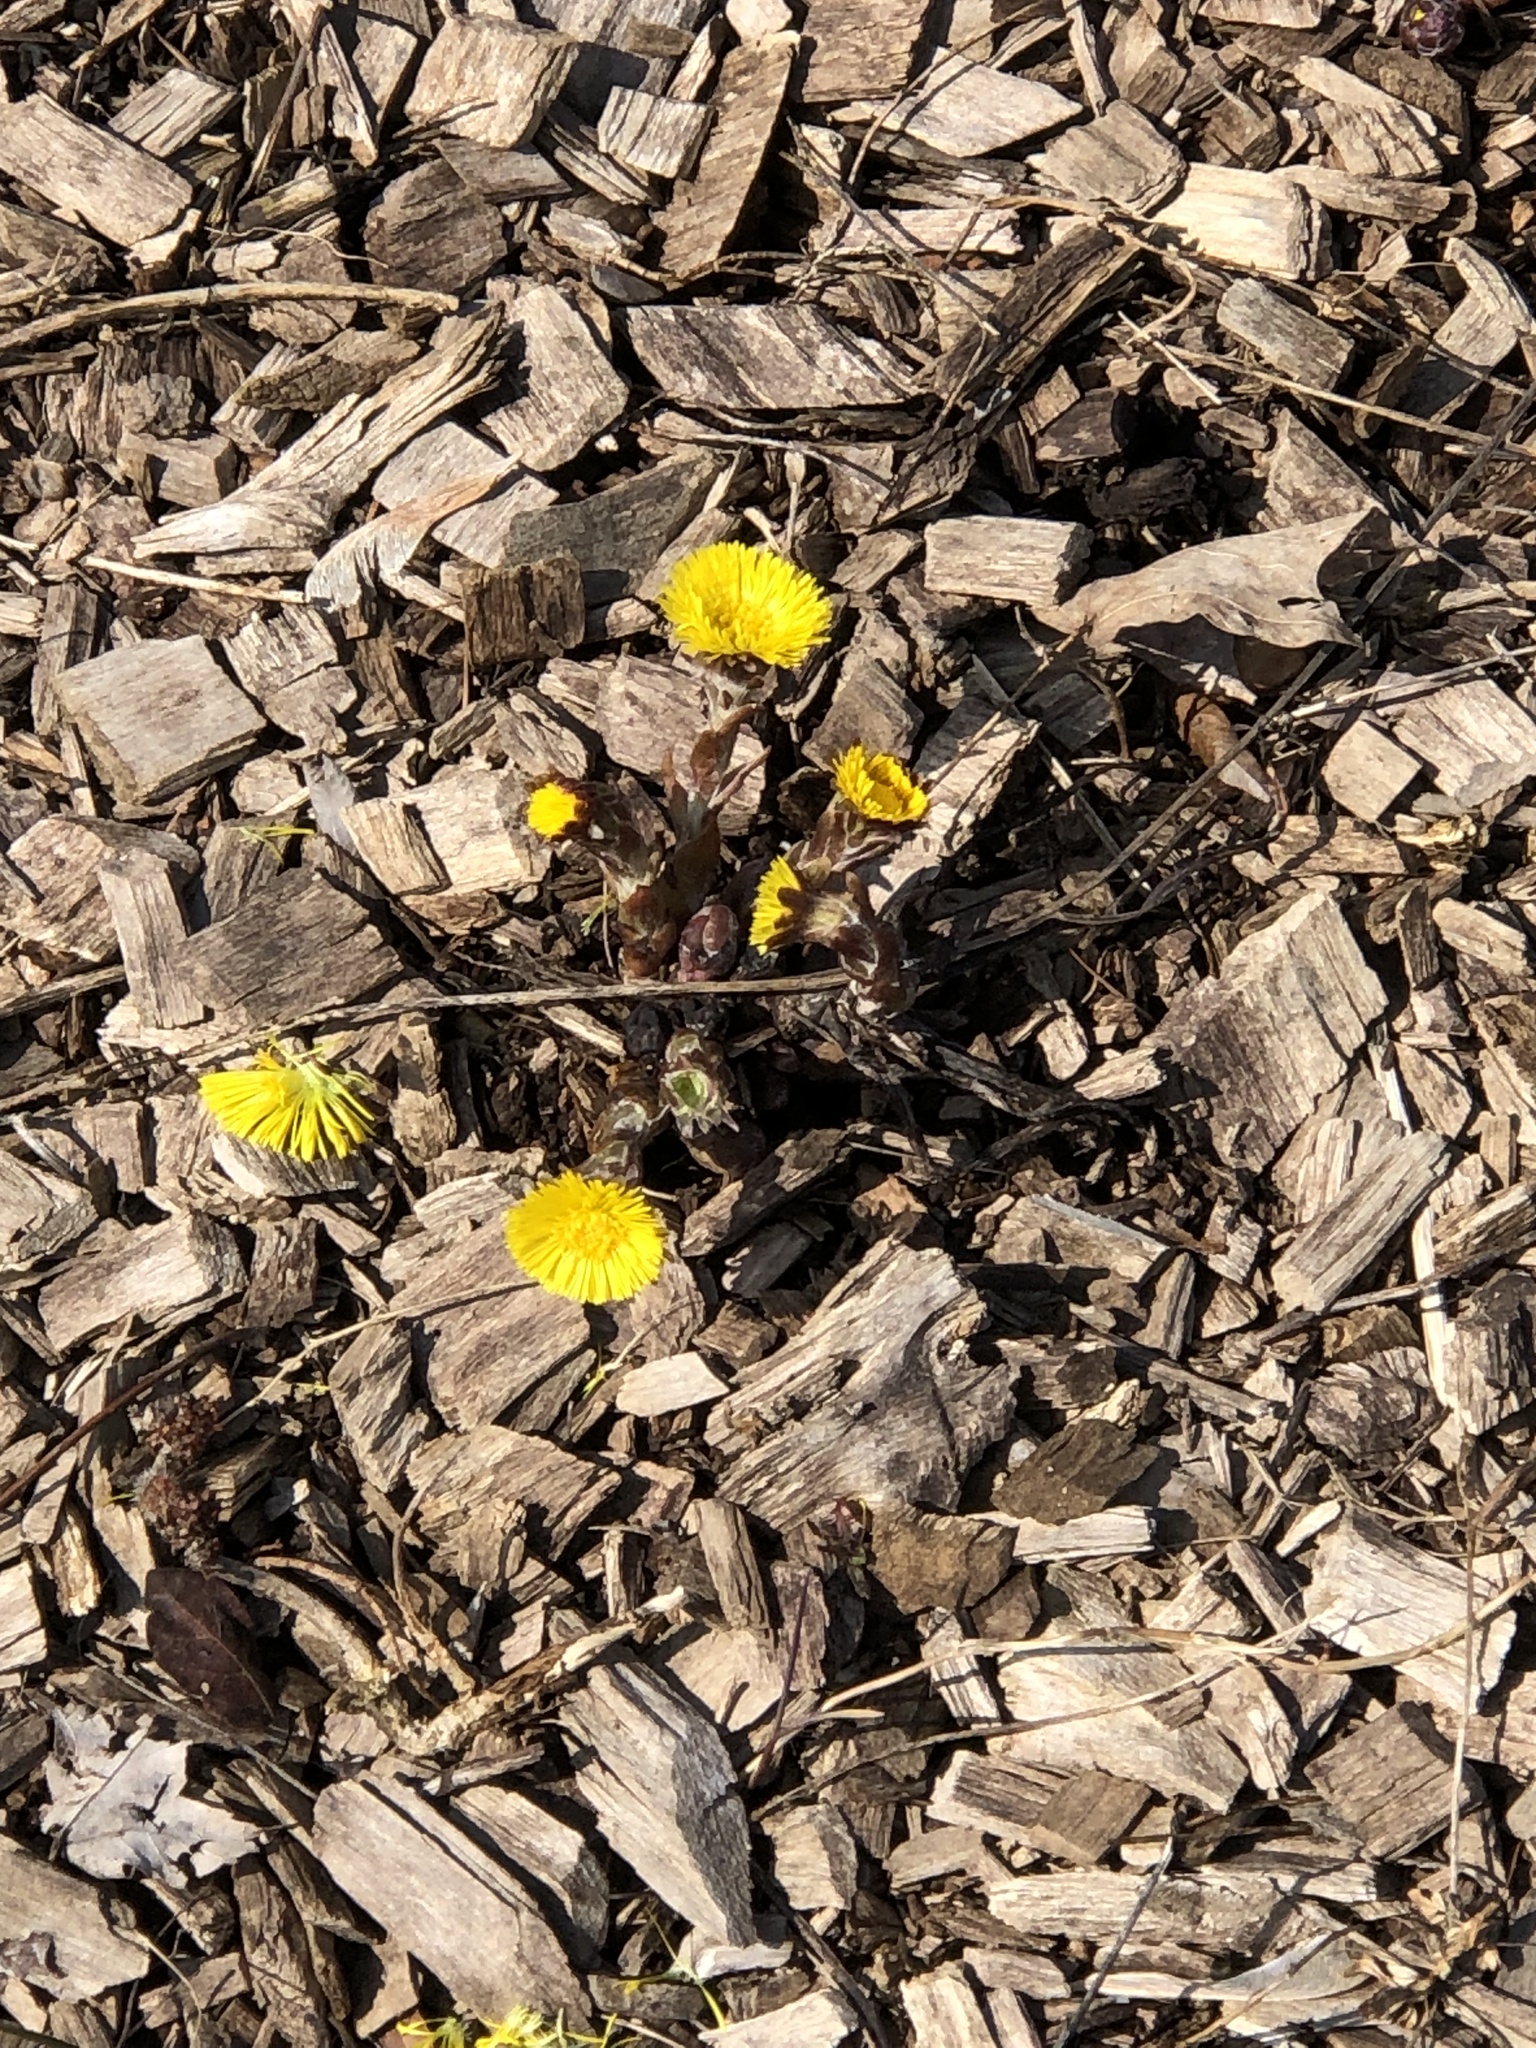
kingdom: Plantae
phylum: Tracheophyta
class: Magnoliopsida
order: Asterales
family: Asteraceae
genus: Tussilago
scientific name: Tussilago farfara
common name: Coltsfoot
